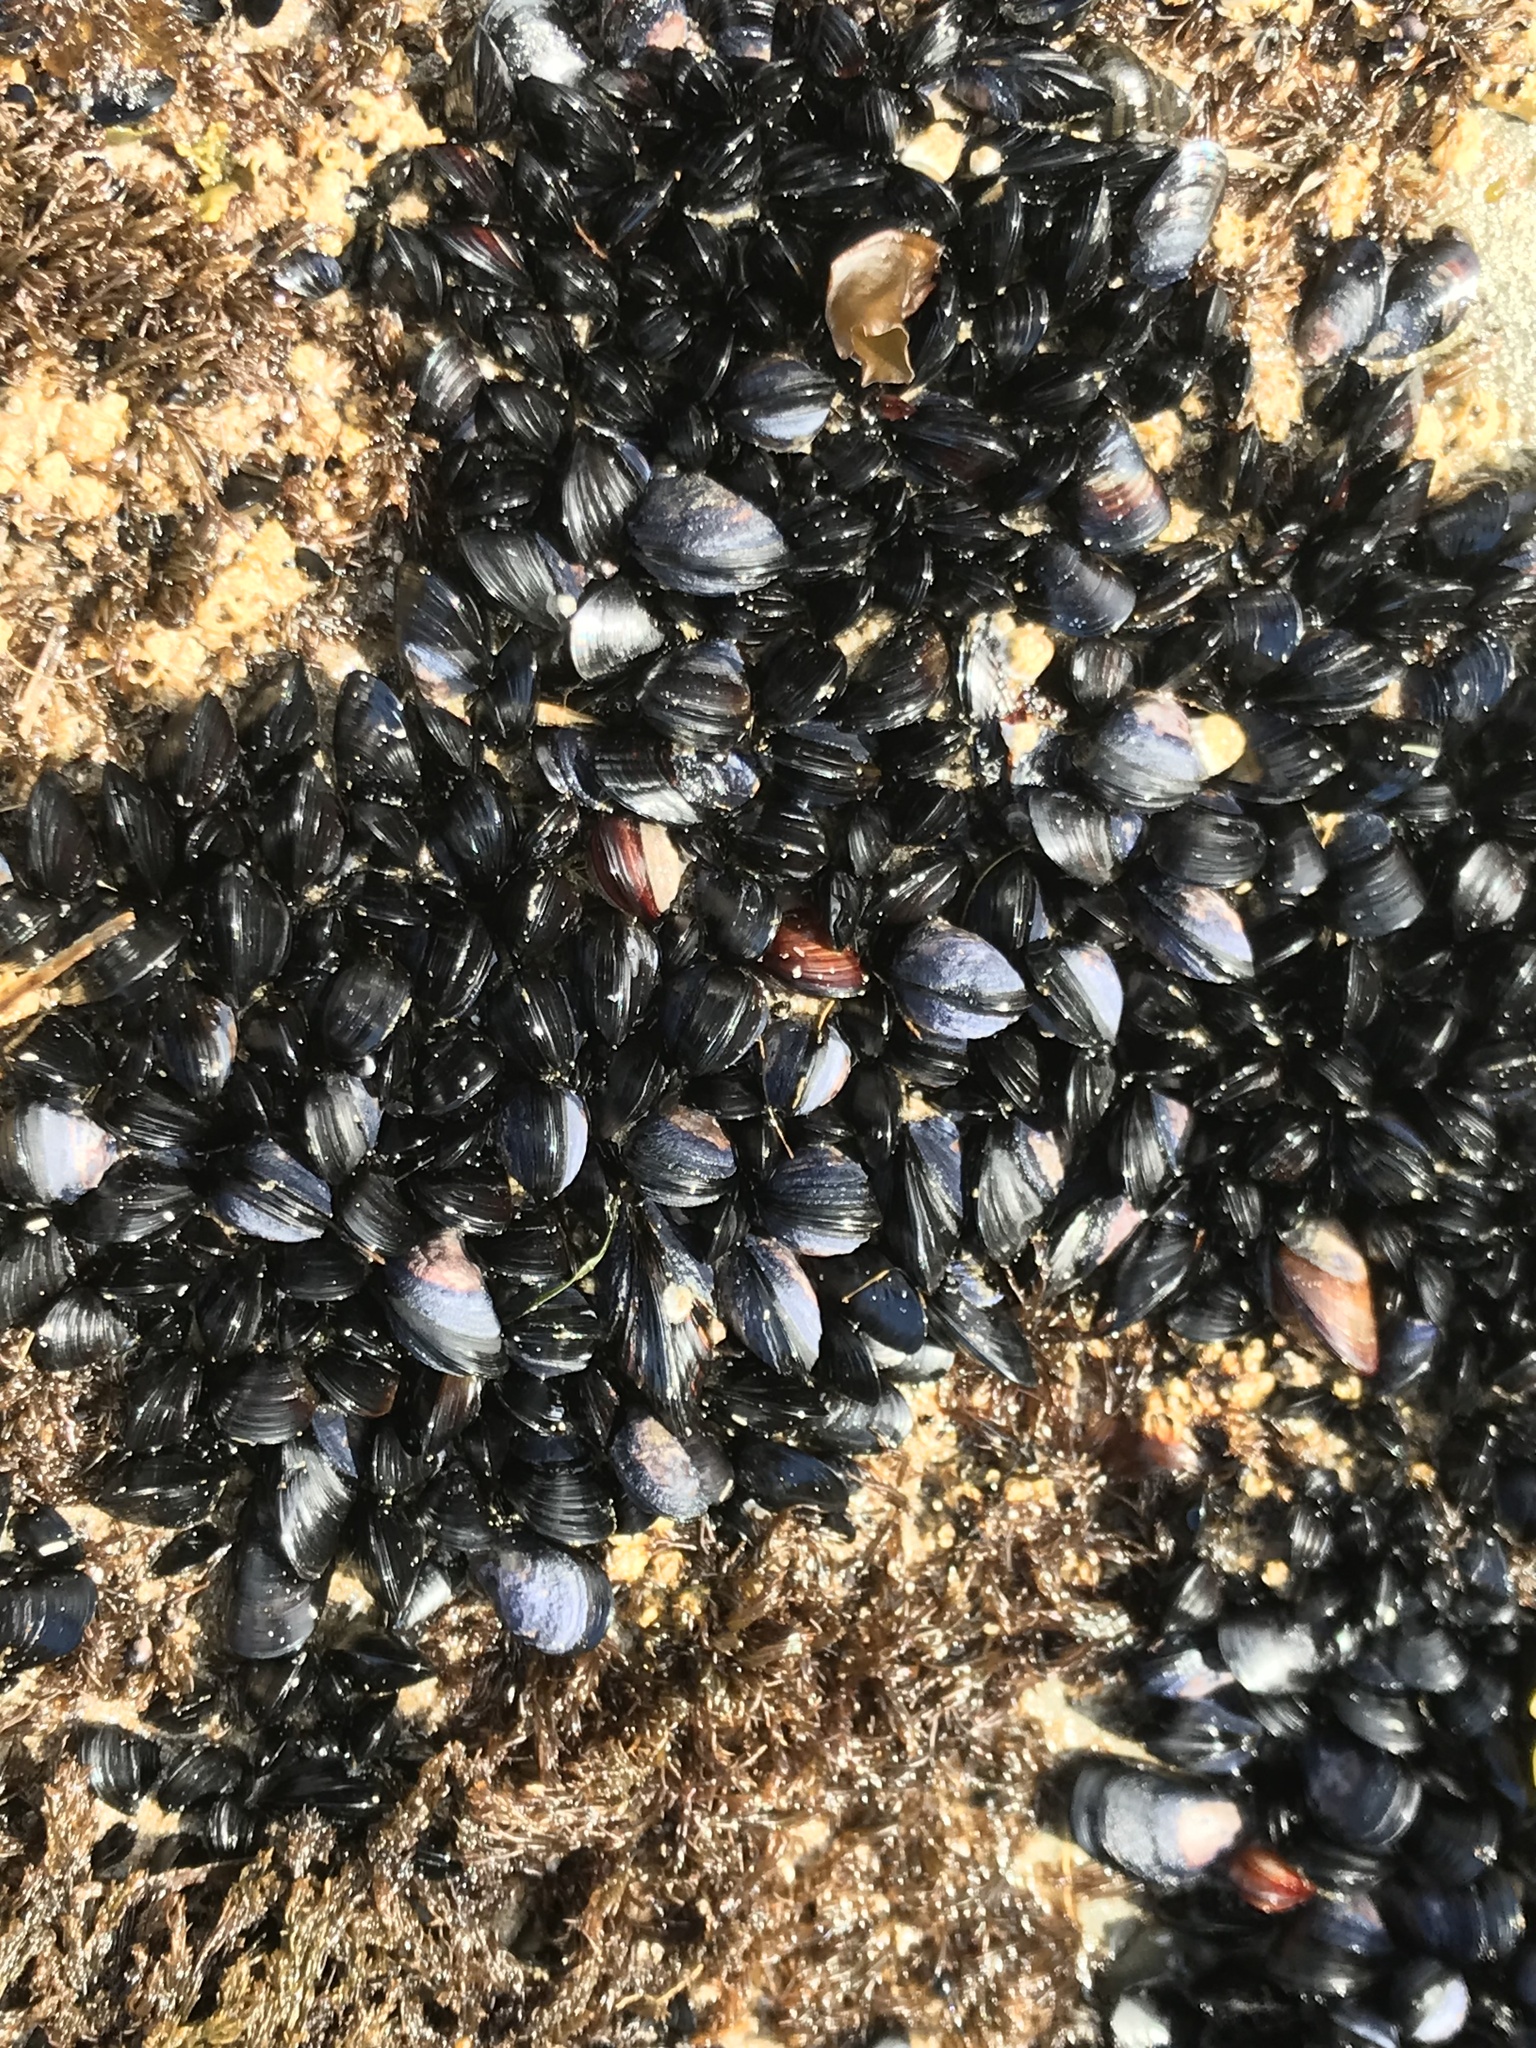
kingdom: Animalia
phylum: Mollusca
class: Bivalvia
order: Mytilida
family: Mytilidae
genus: Mytilus
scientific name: Mytilus trossulus
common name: Northern blue mussel
